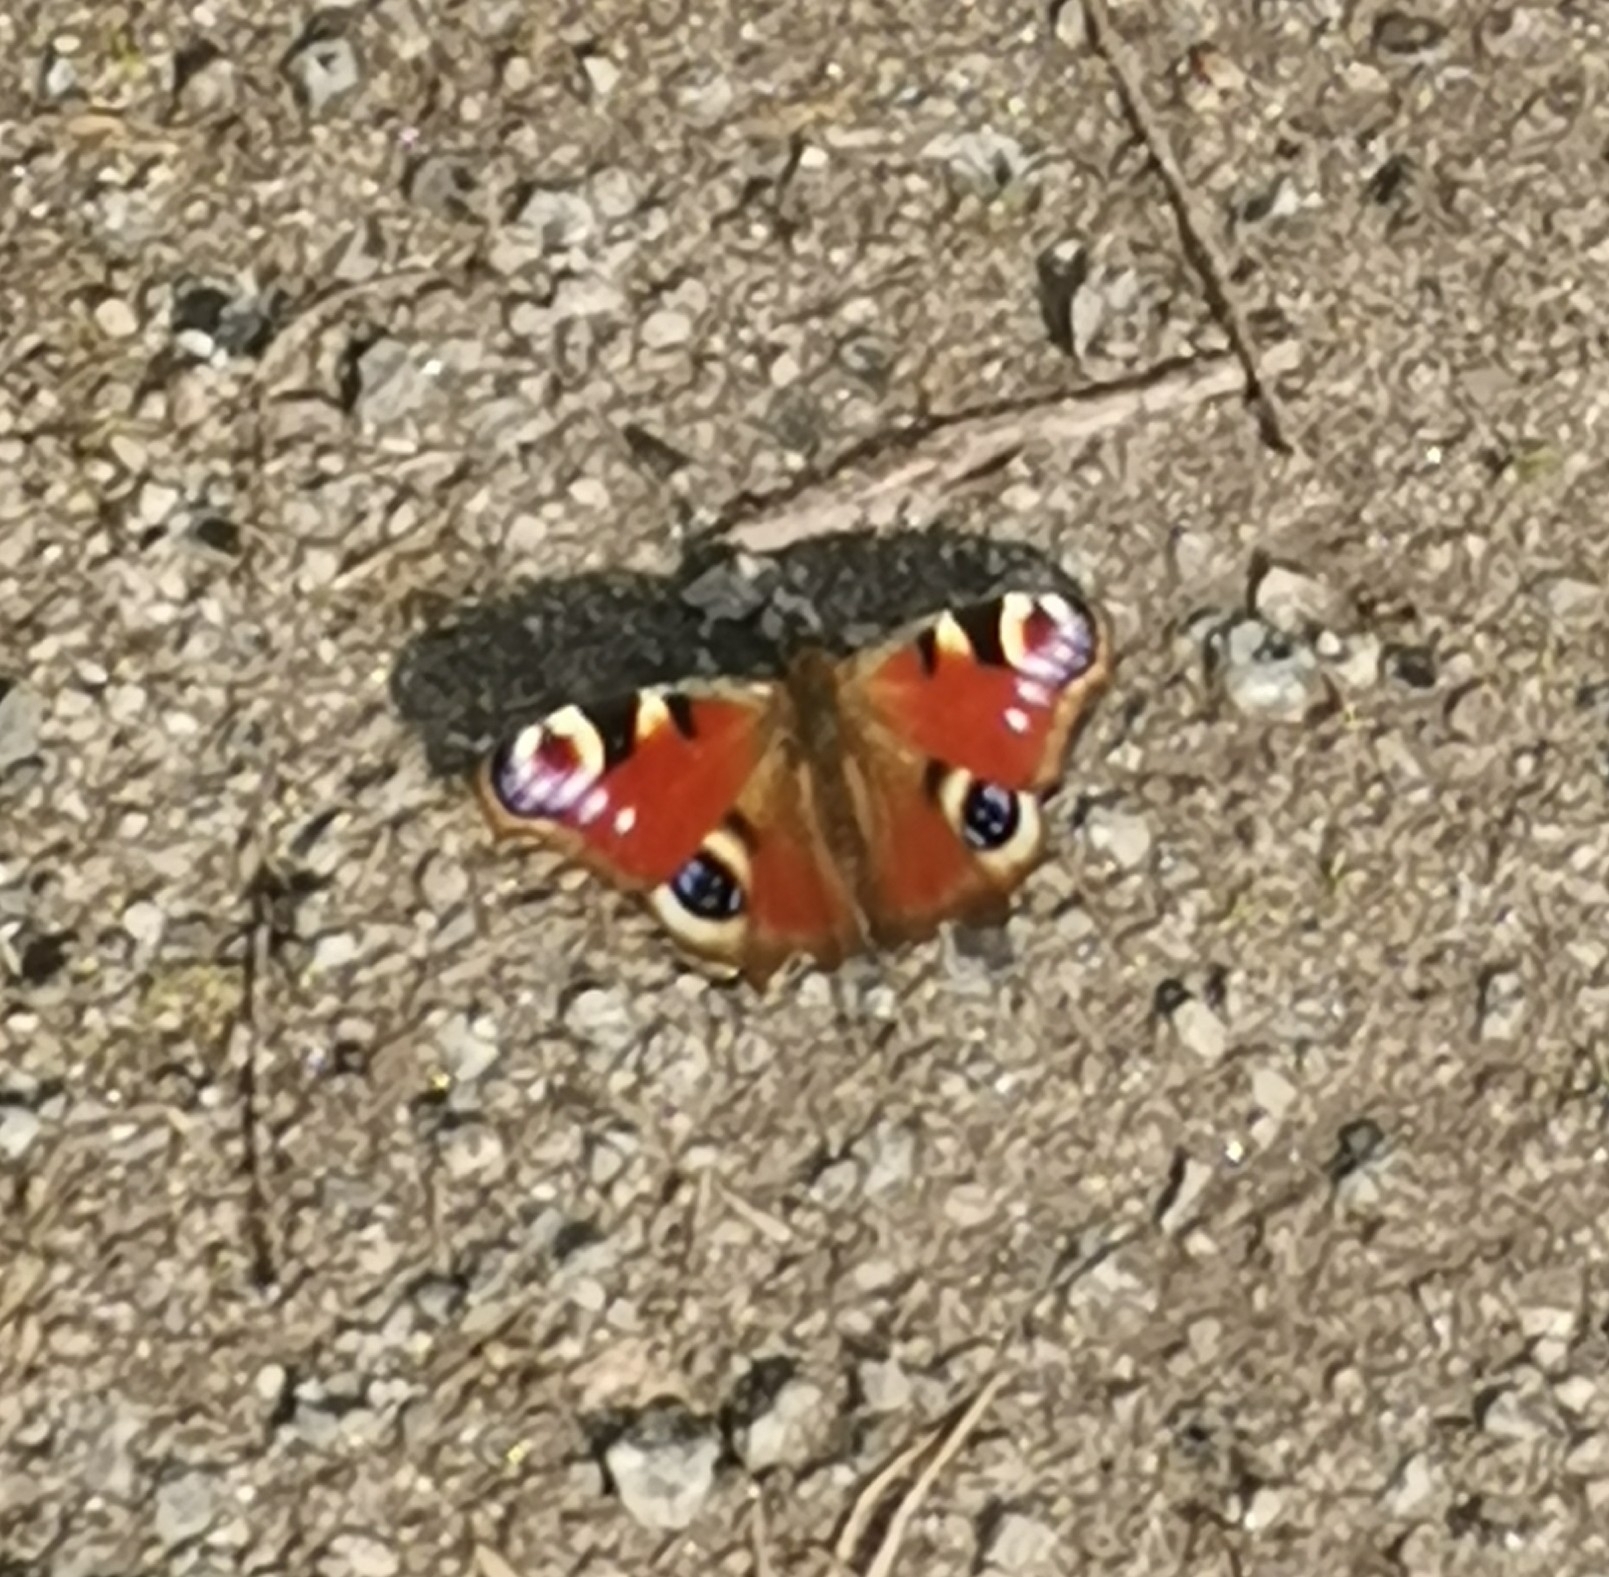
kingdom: Animalia
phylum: Arthropoda
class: Insecta
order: Lepidoptera
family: Nymphalidae
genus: Aglais
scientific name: Aglais io
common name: Peacock
